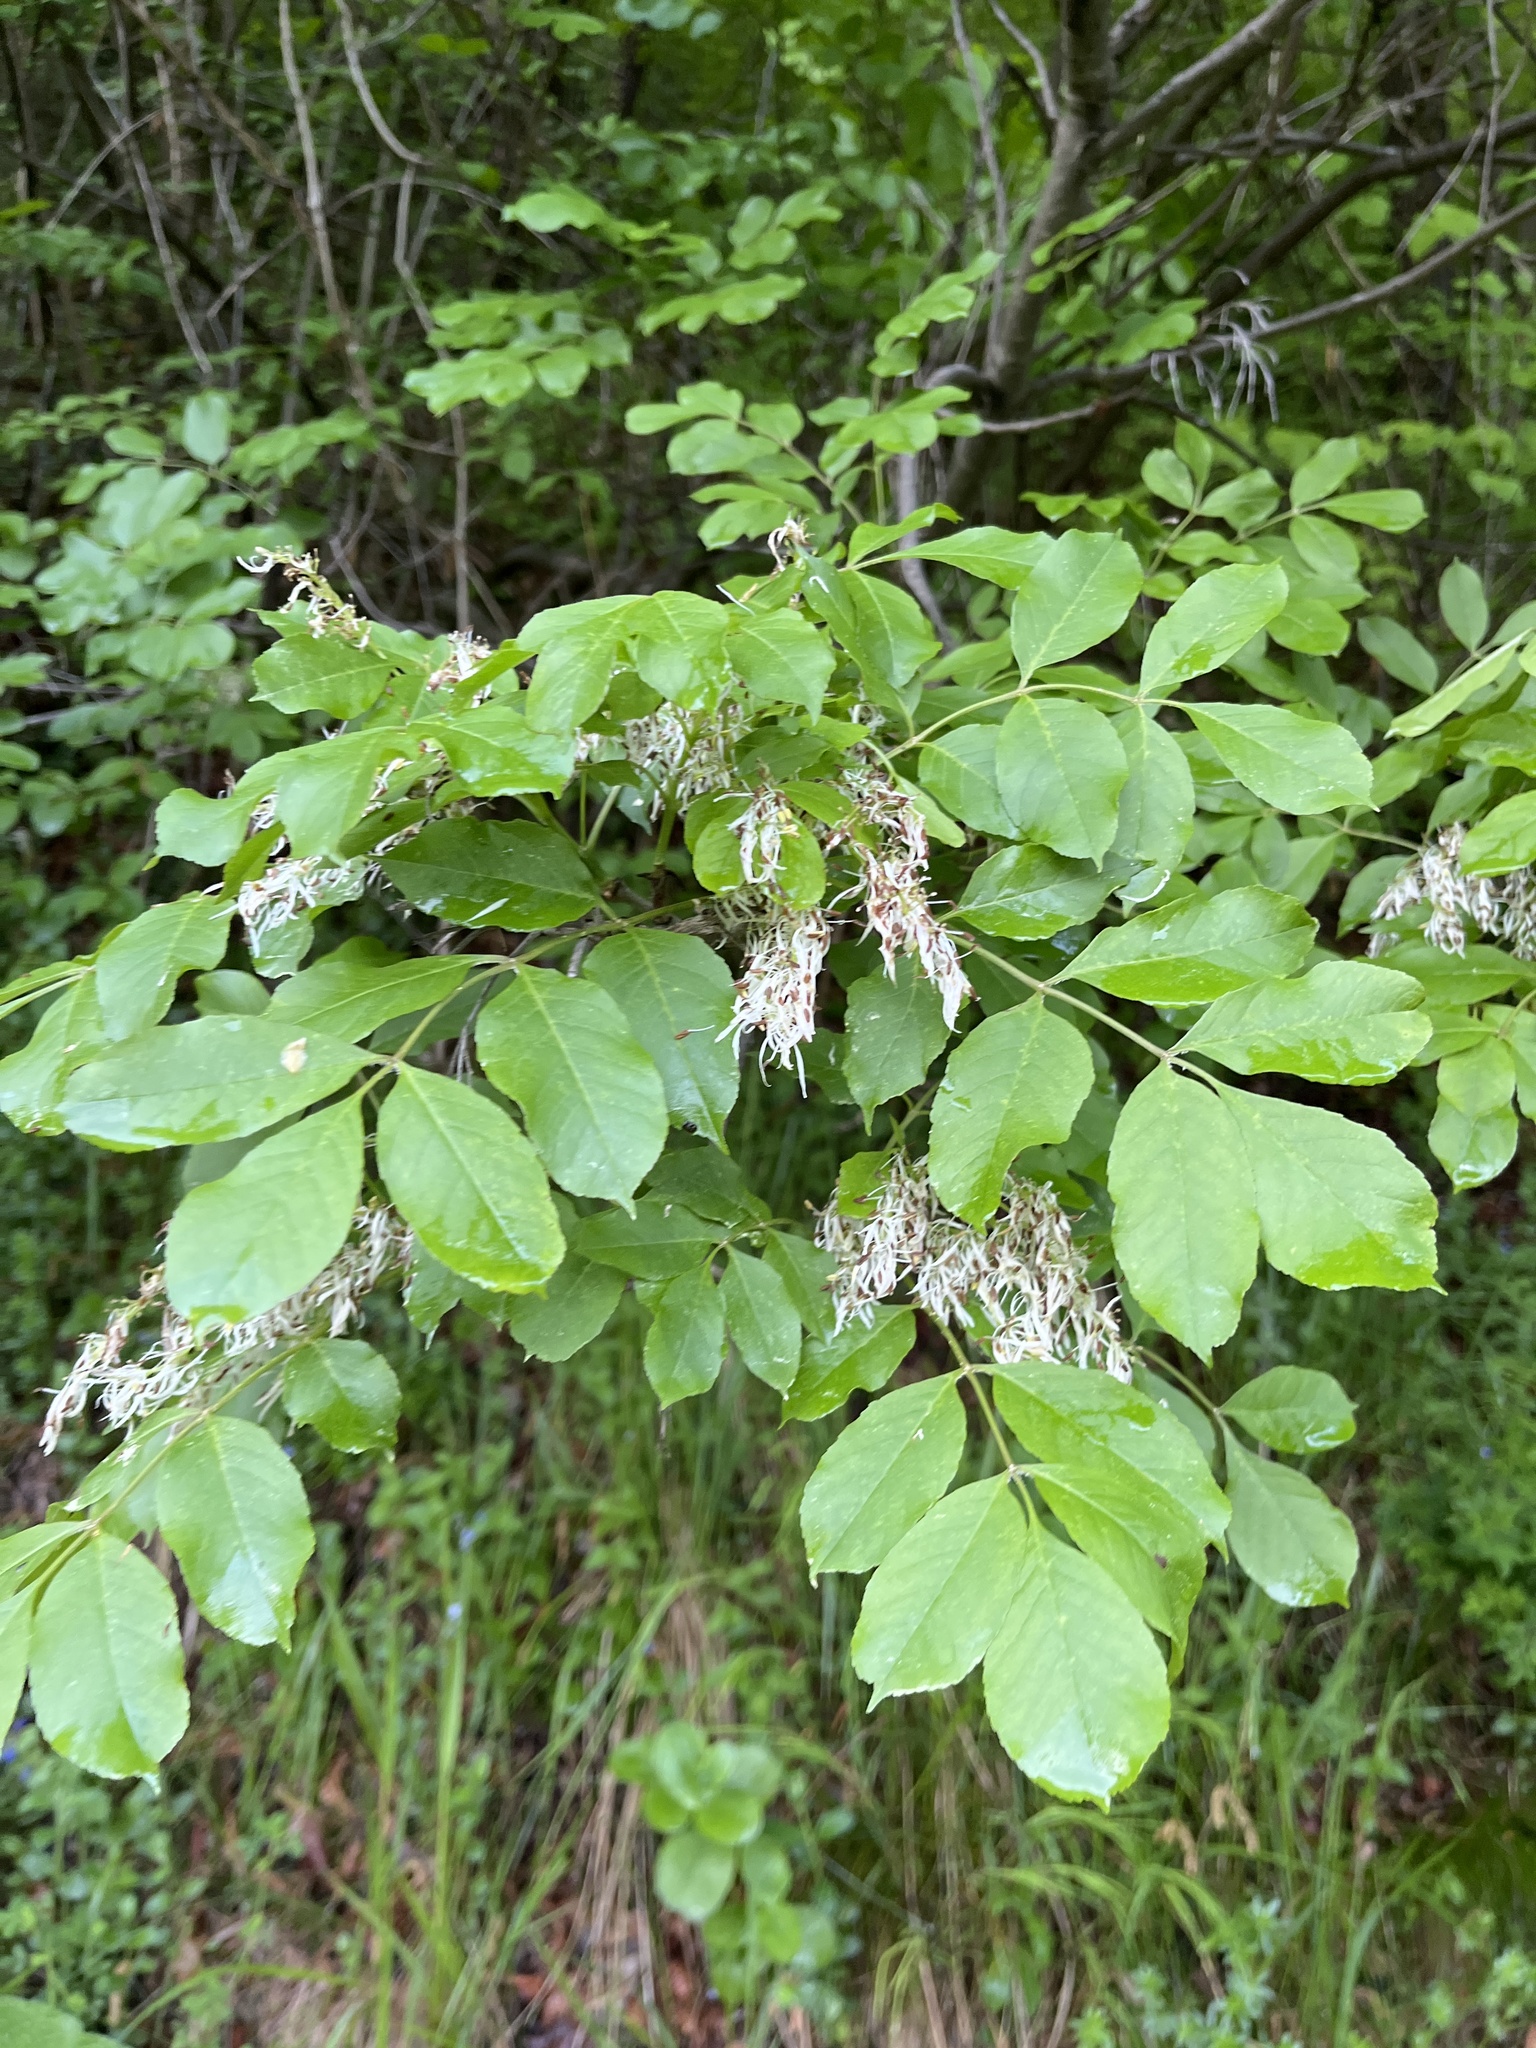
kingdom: Plantae
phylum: Tracheophyta
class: Magnoliopsida
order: Lamiales
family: Oleaceae
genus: Fraxinus
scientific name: Fraxinus ornus
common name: Manna ash
